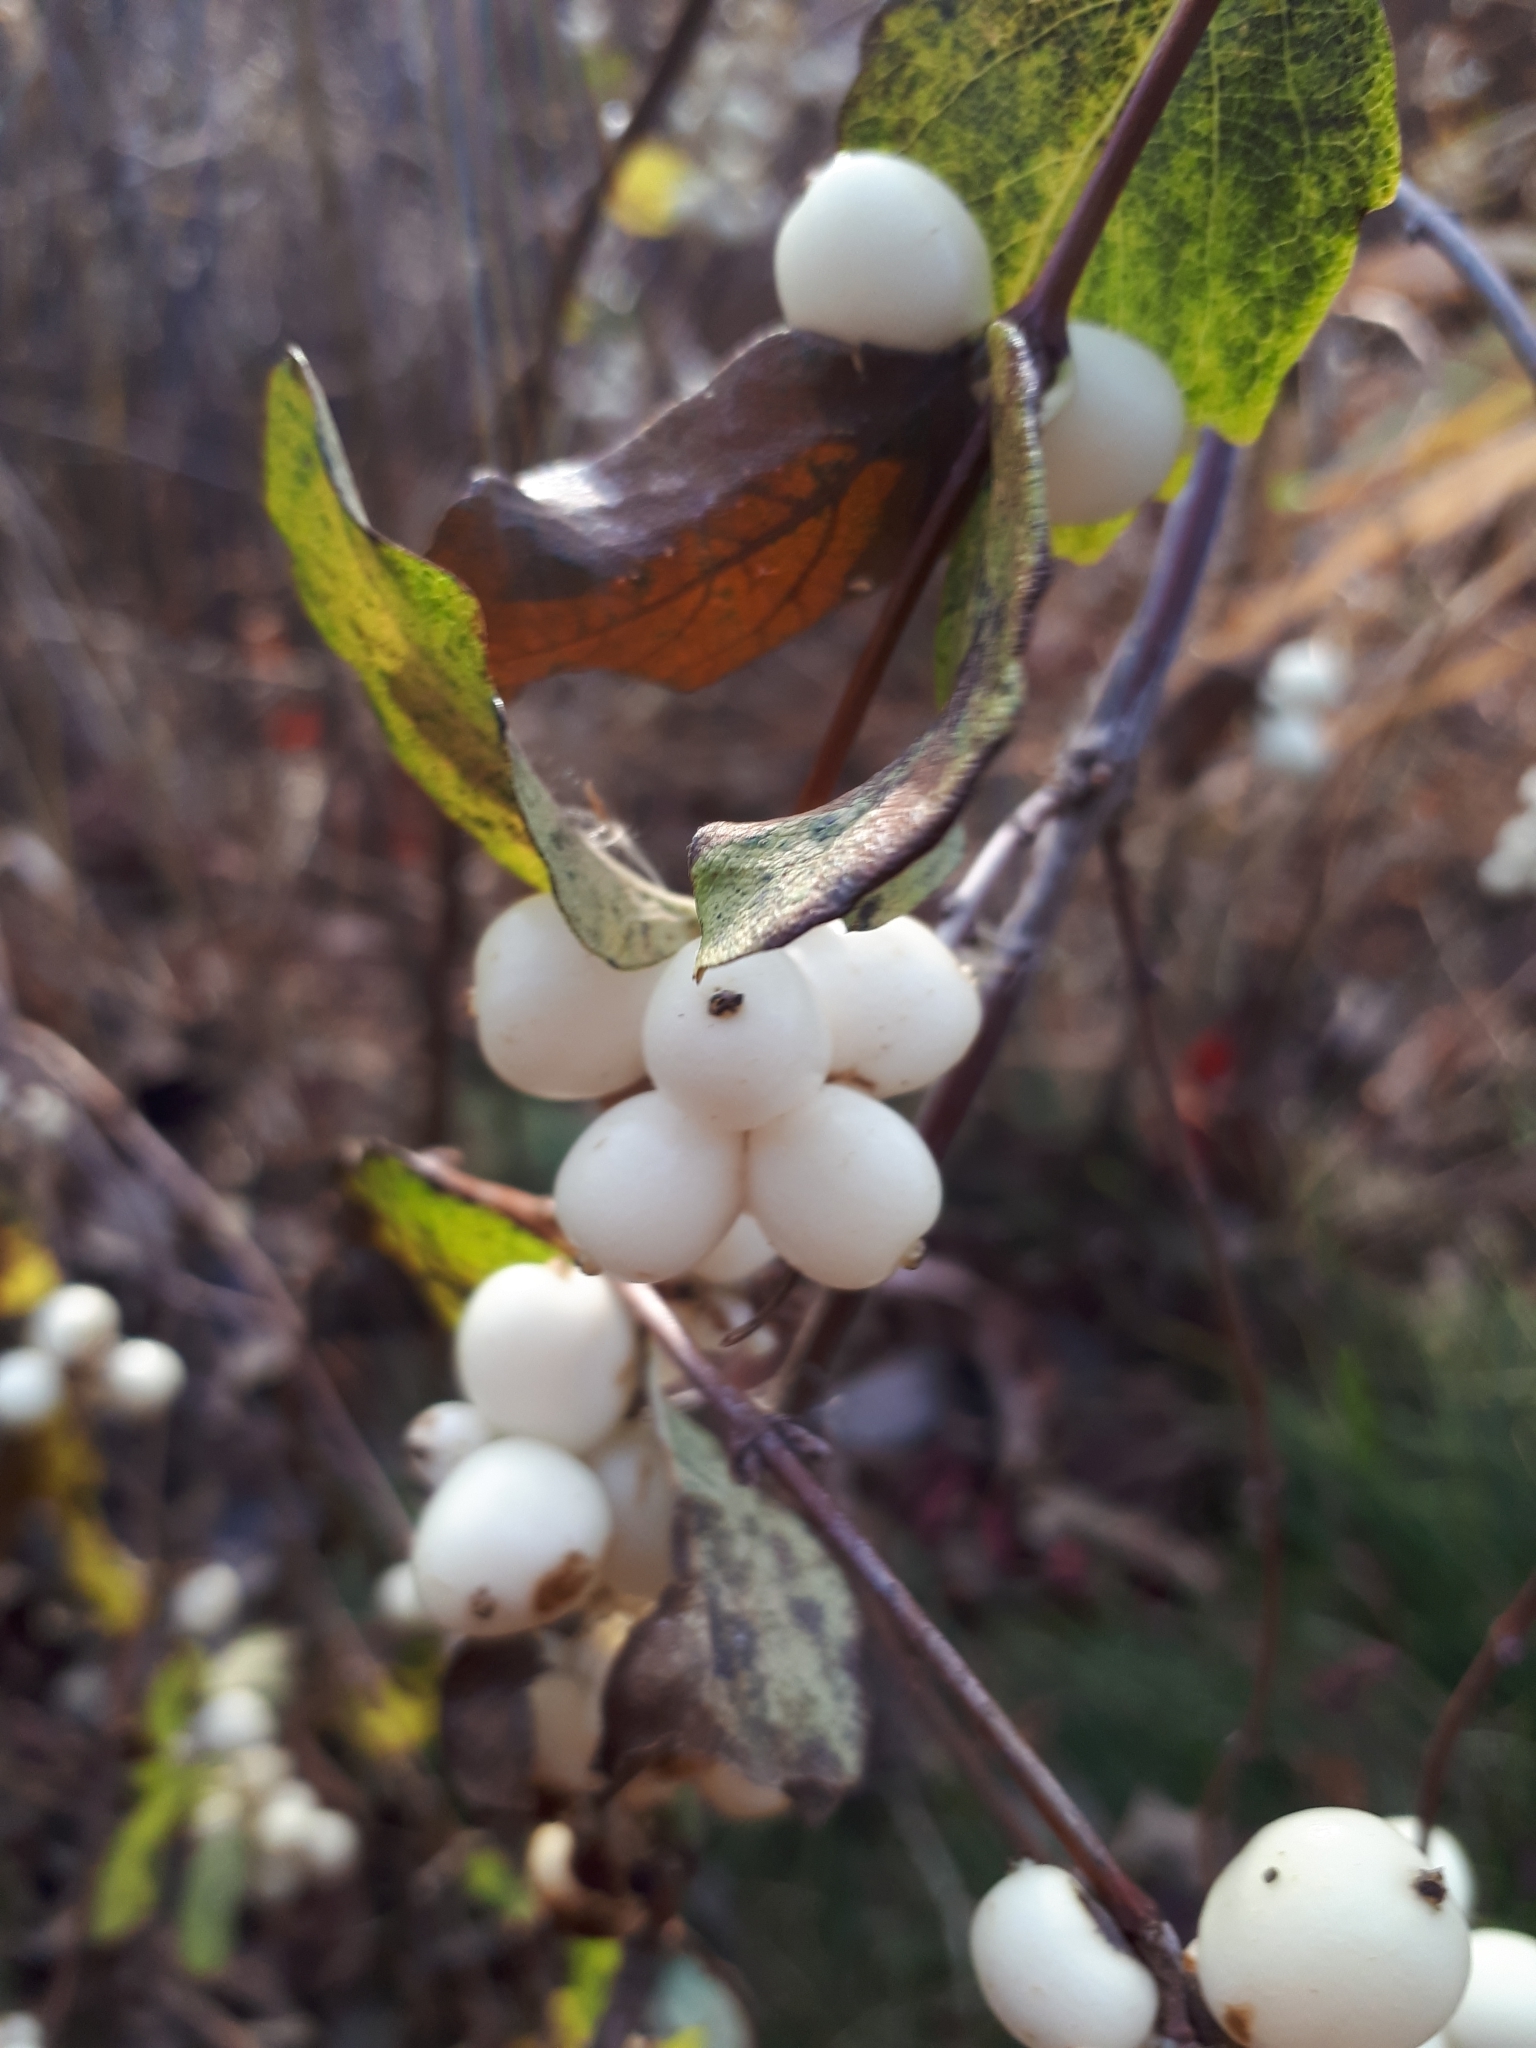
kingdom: Plantae
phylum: Tracheophyta
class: Magnoliopsida
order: Dipsacales
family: Caprifoliaceae
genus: Symphoricarpos
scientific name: Symphoricarpos albus
